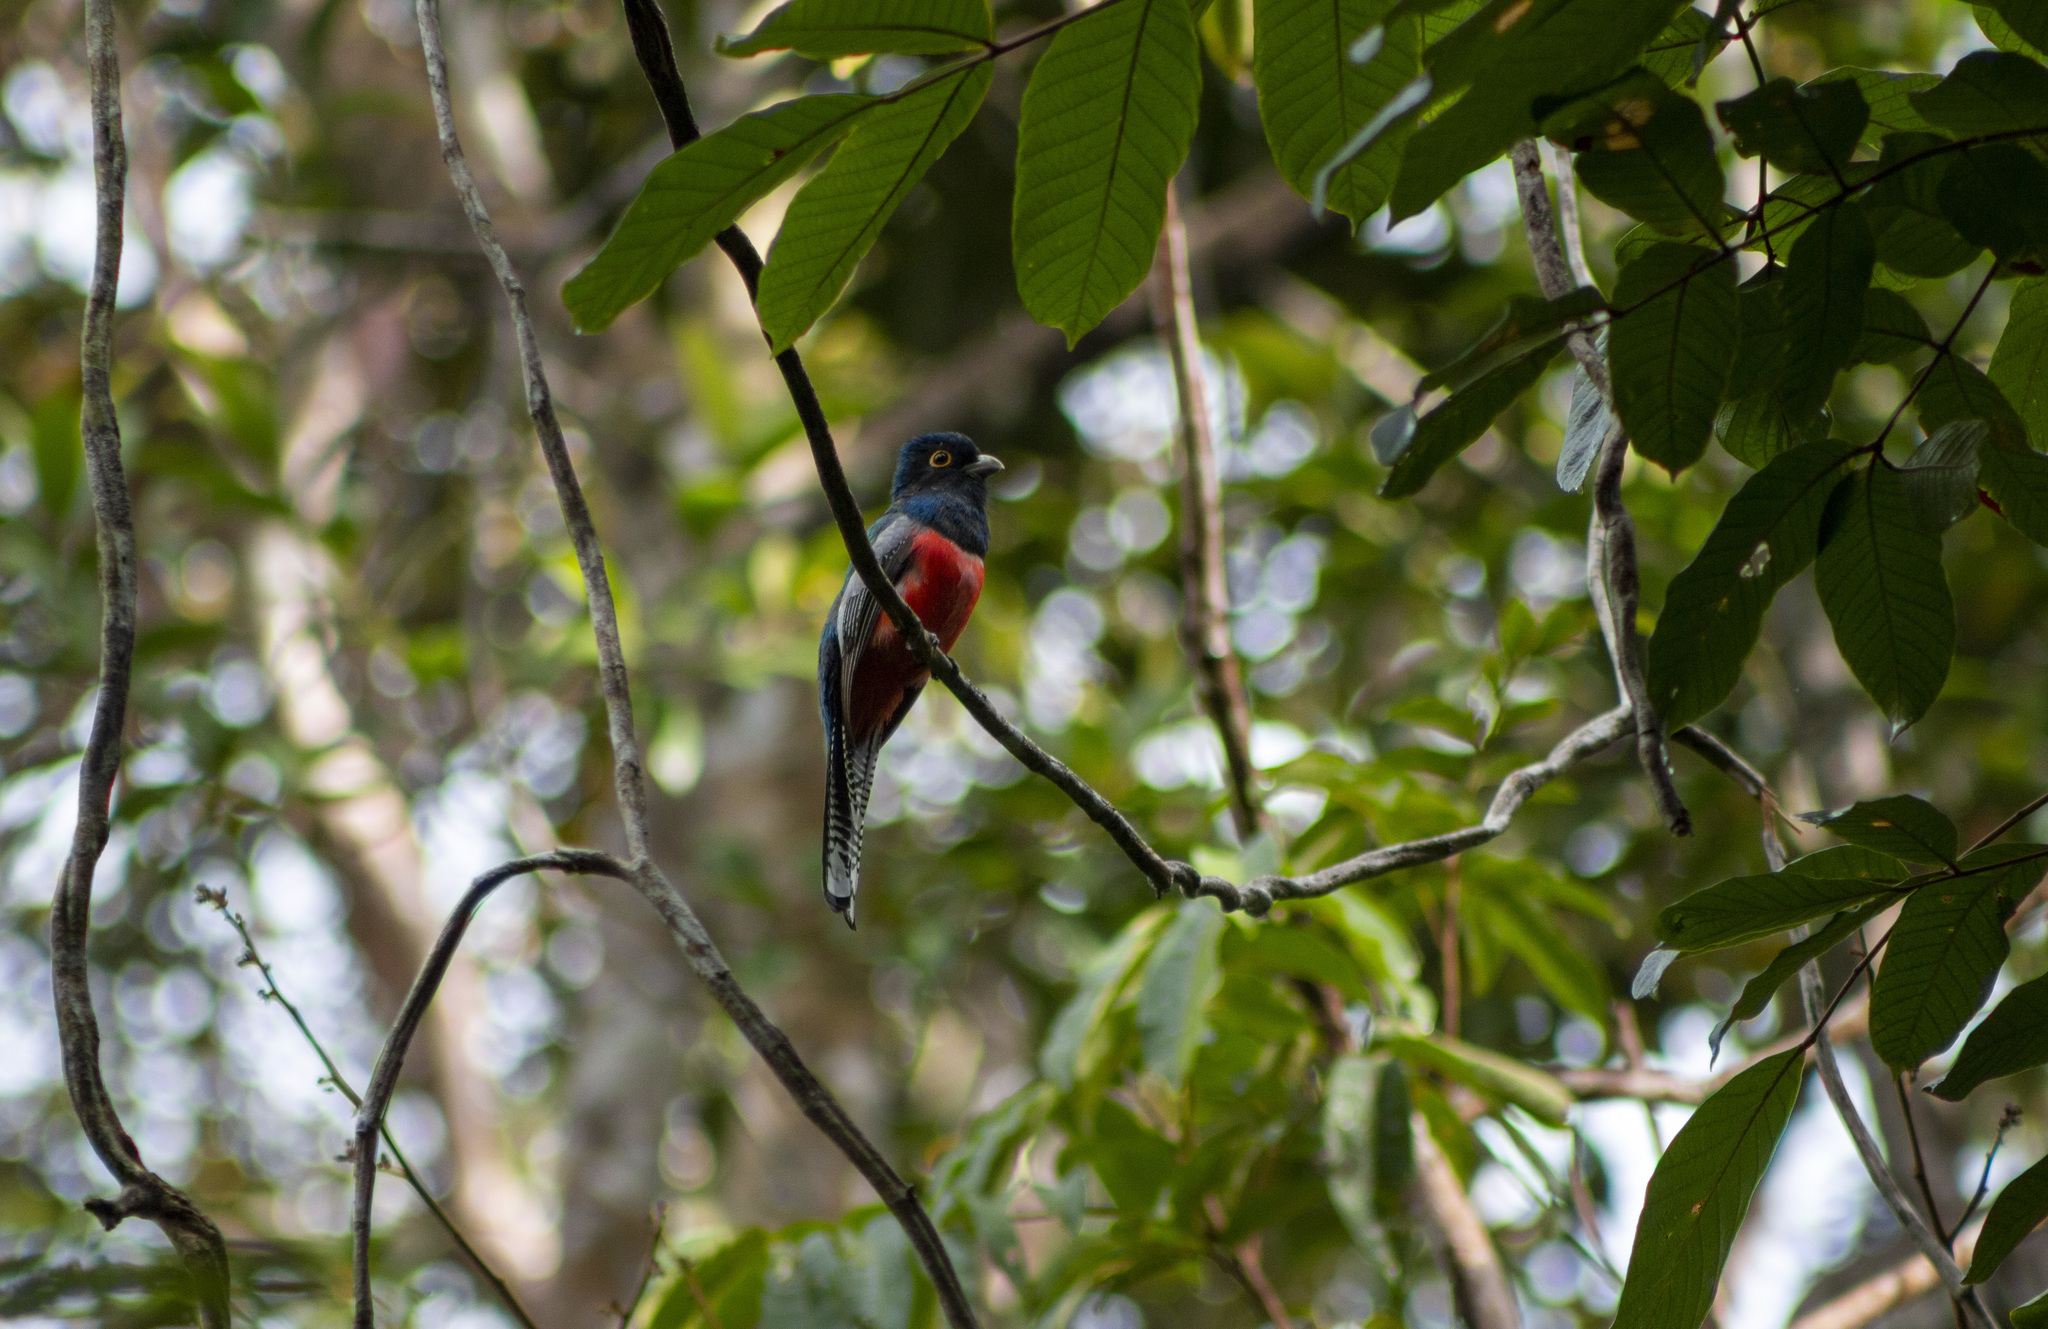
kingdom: Animalia
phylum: Chordata
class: Aves
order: Trogoniformes
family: Trogonidae
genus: Trogon
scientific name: Trogon curucui
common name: Blue-crowned trogon
